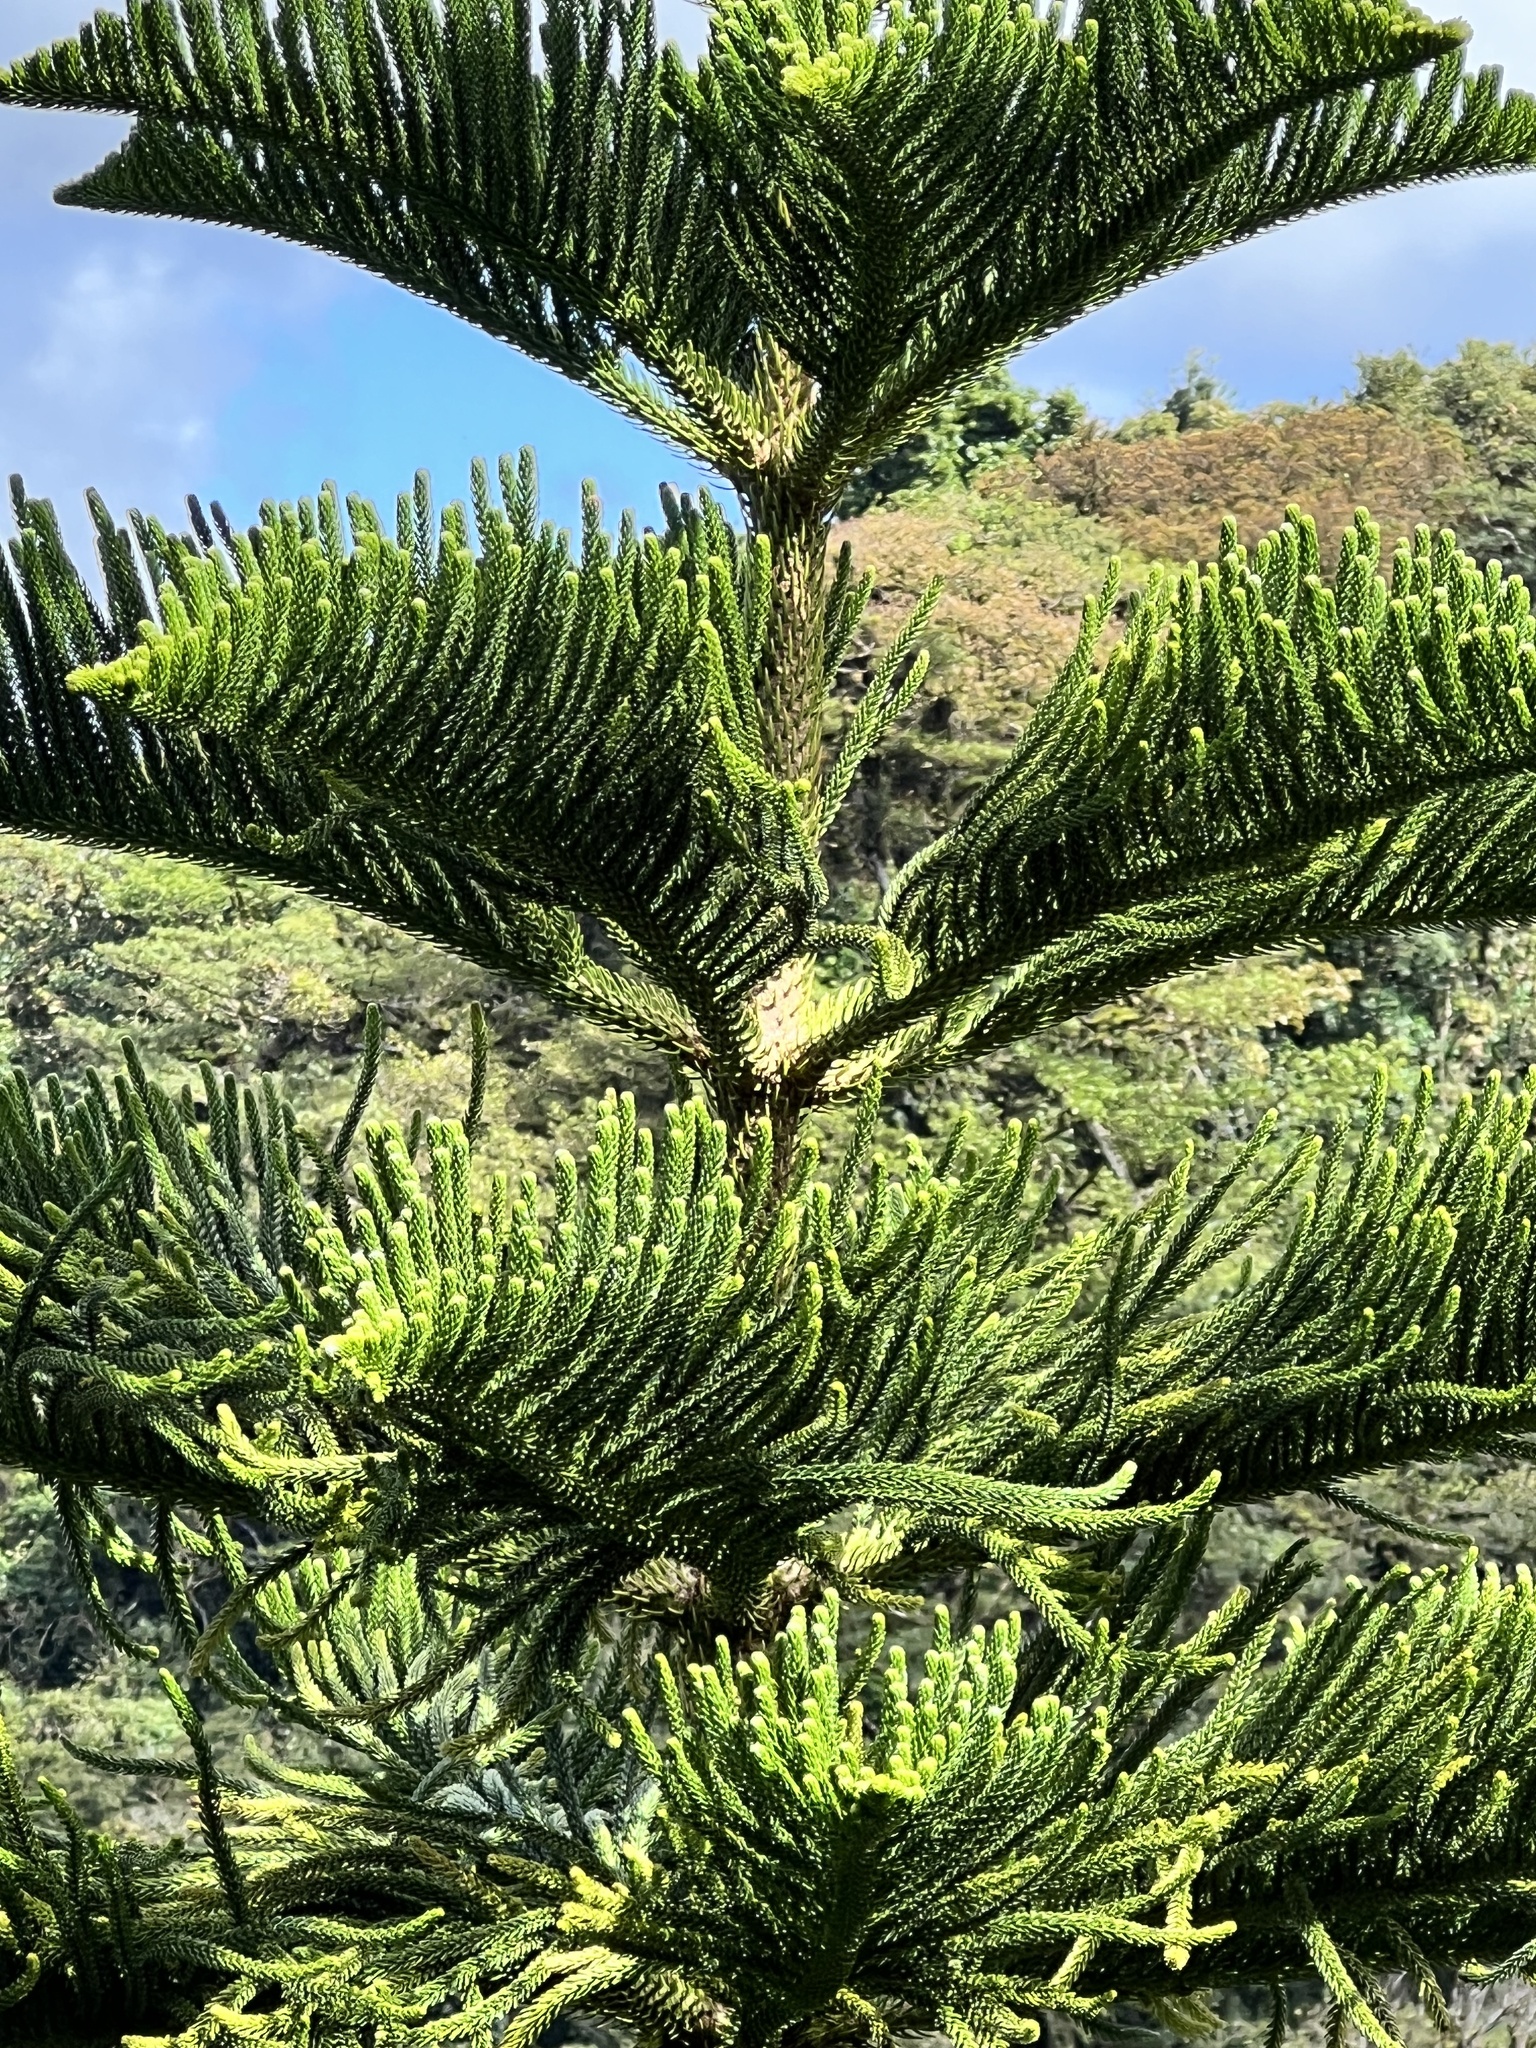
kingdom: Plantae
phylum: Tracheophyta
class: Pinopsida
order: Pinales
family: Araucariaceae
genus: Araucaria
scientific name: Araucaria heterophylla
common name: Norfolk island pine
